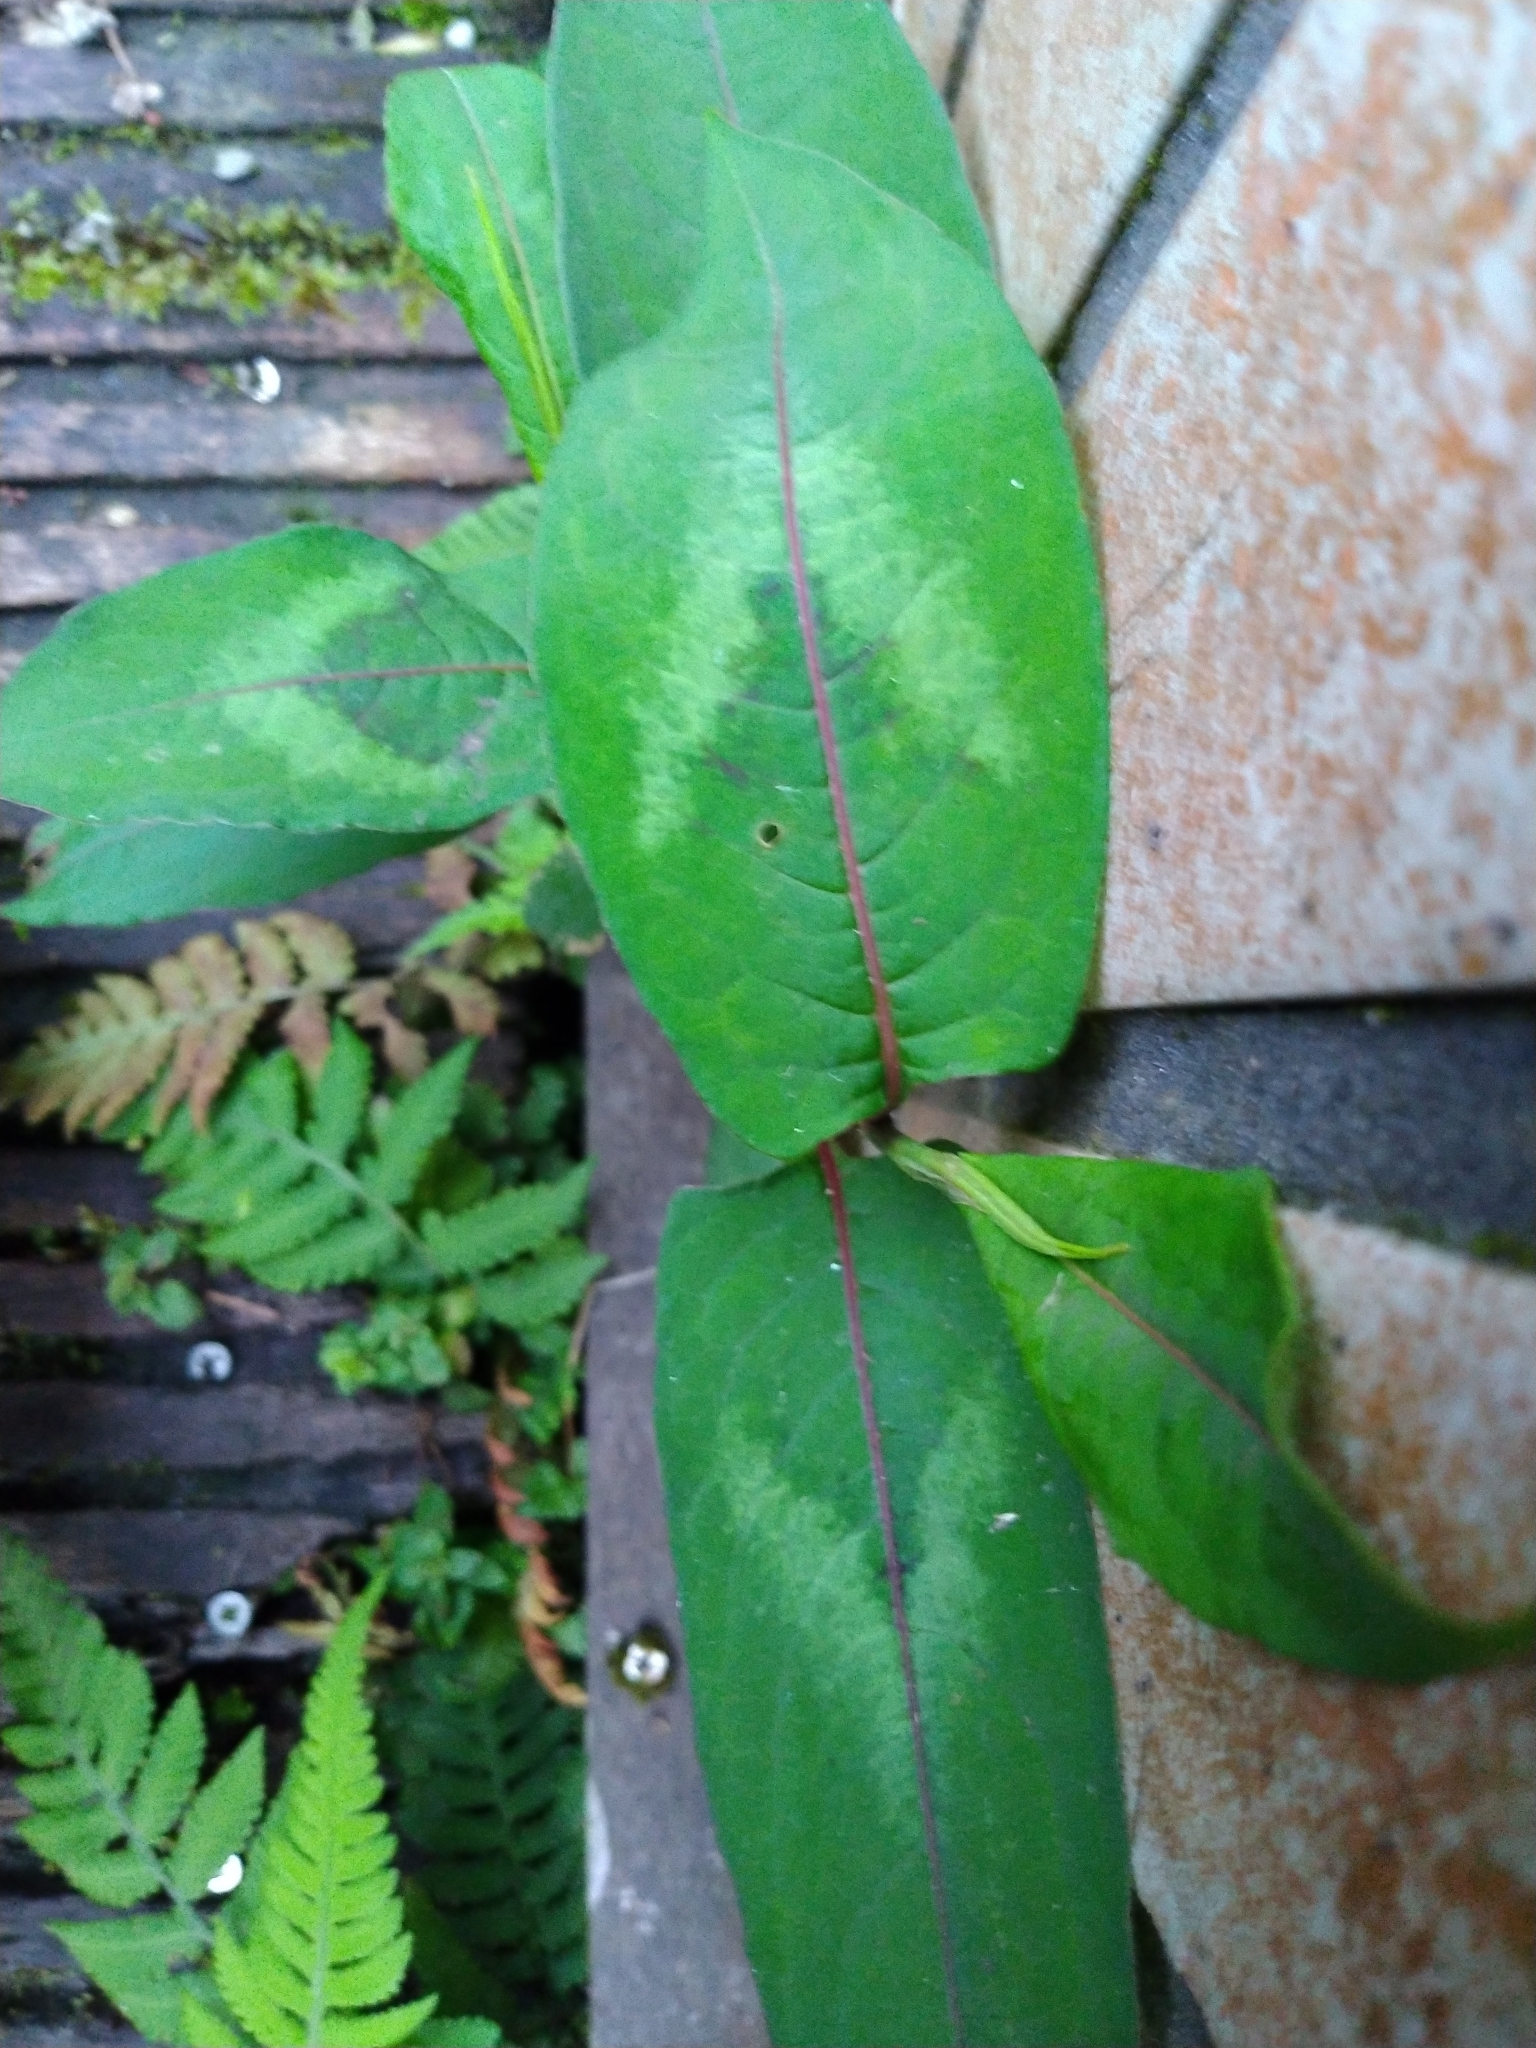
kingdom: Plantae
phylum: Tracheophyta
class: Magnoliopsida
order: Caryophyllales
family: Polygonaceae
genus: Persicaria
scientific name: Persicaria chinensis
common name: Chinese knotweed
